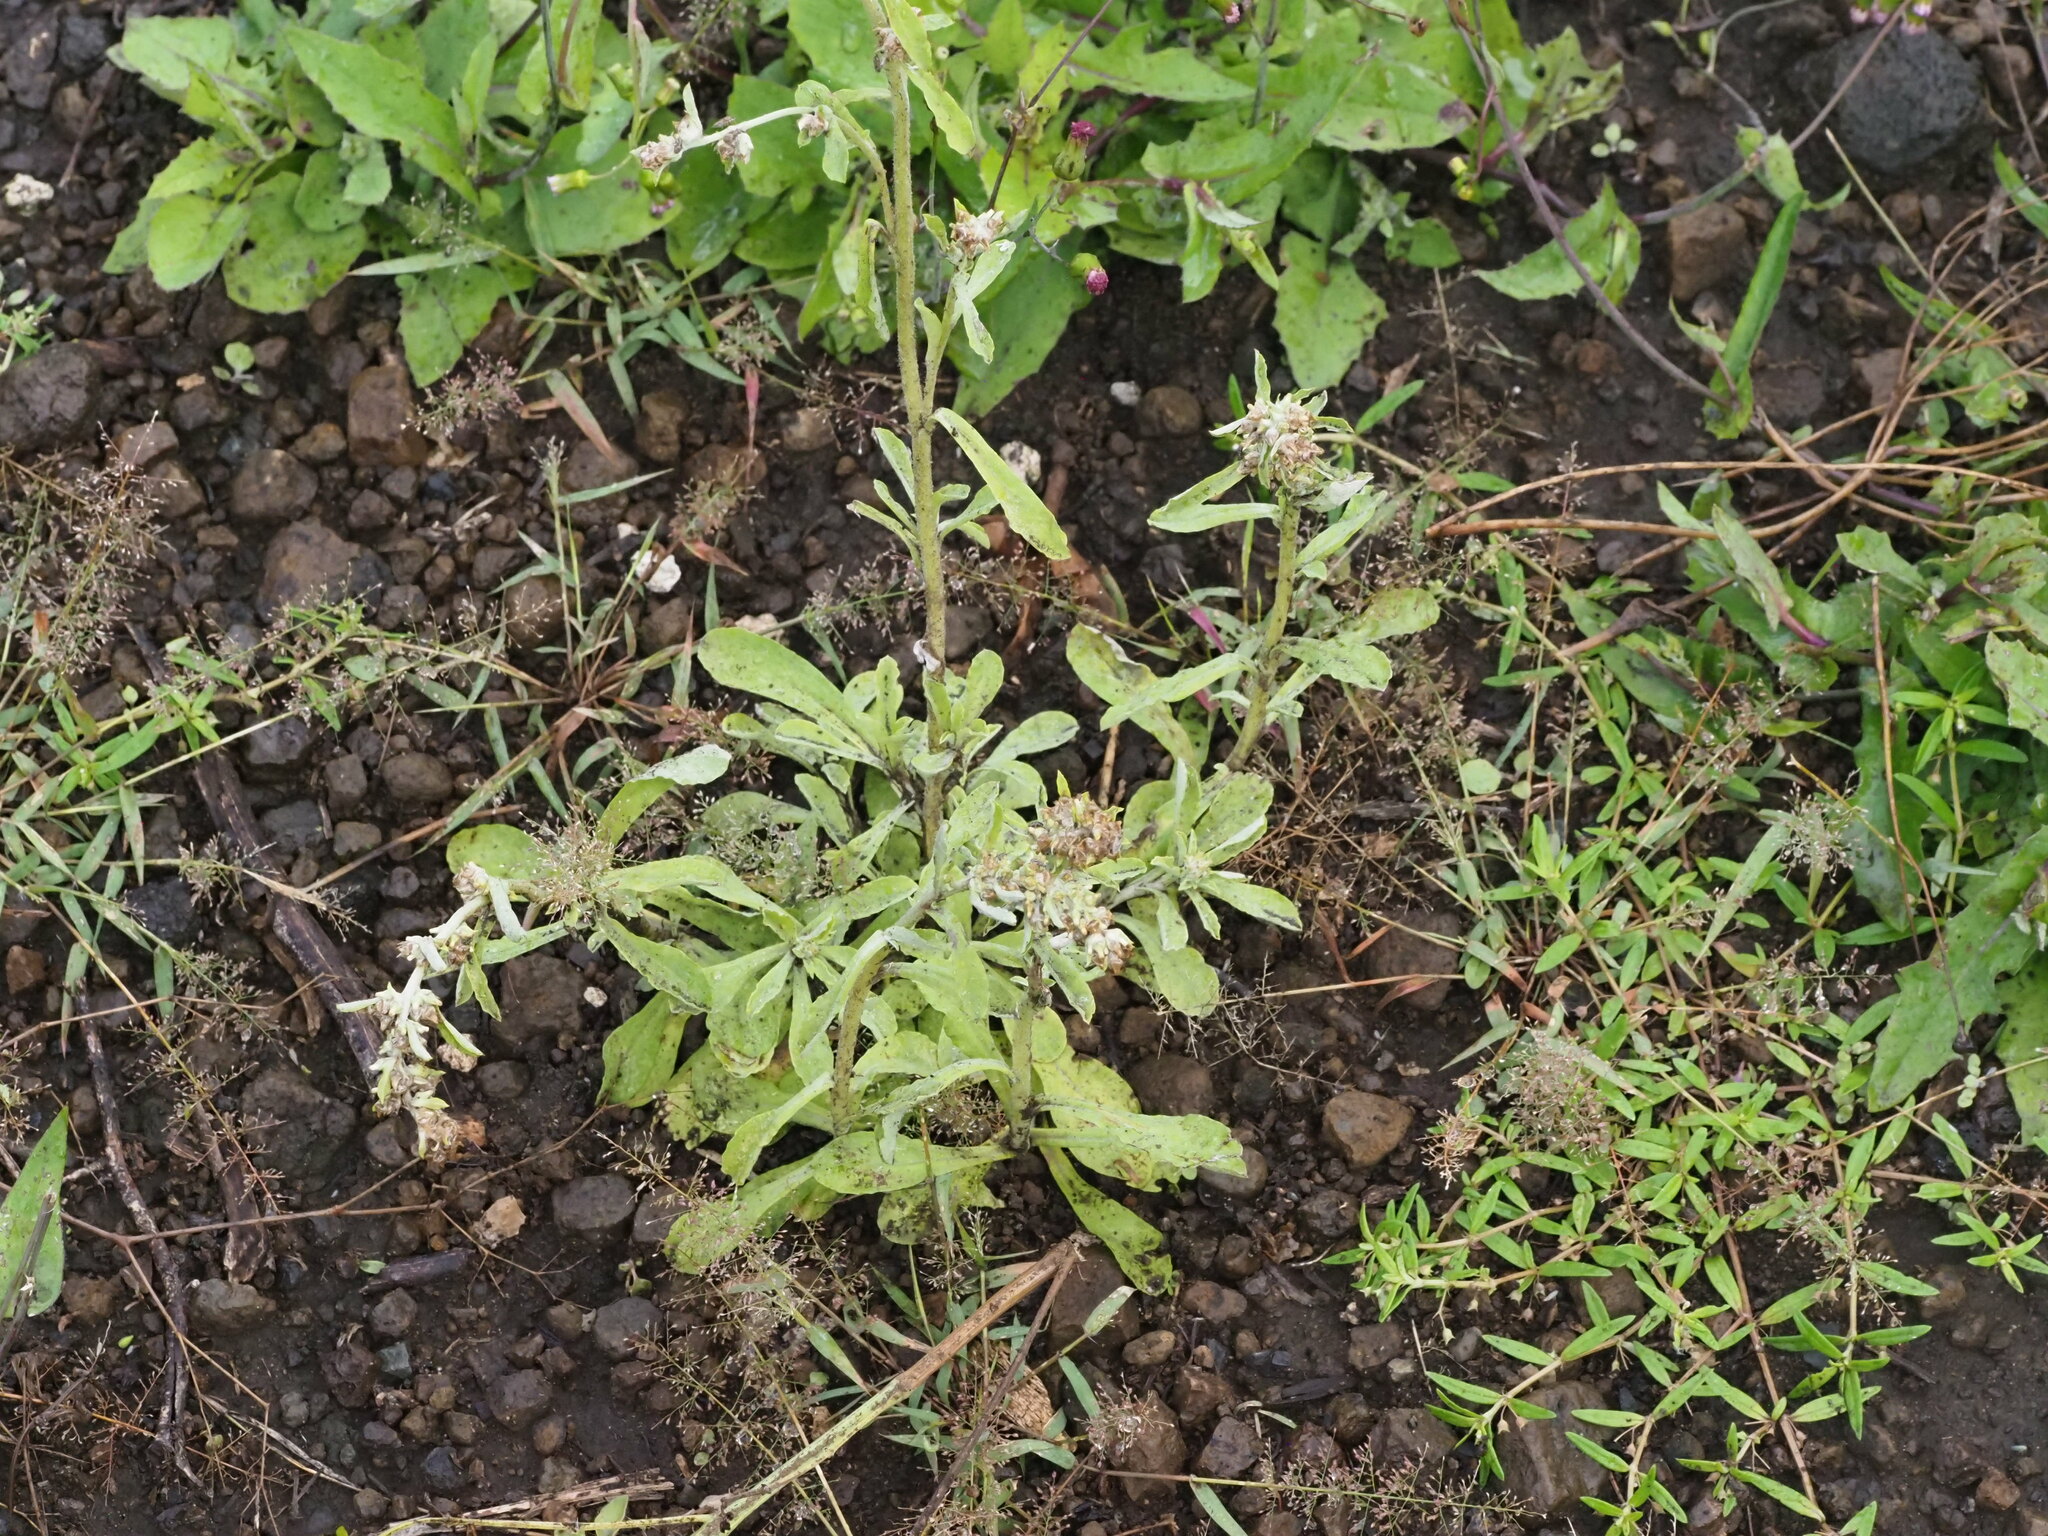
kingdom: Plantae
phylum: Tracheophyta
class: Magnoliopsida
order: Asterales
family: Asteraceae
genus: Gamochaeta
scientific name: Gamochaeta pensylvanica
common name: Pennsylvania everlasting
